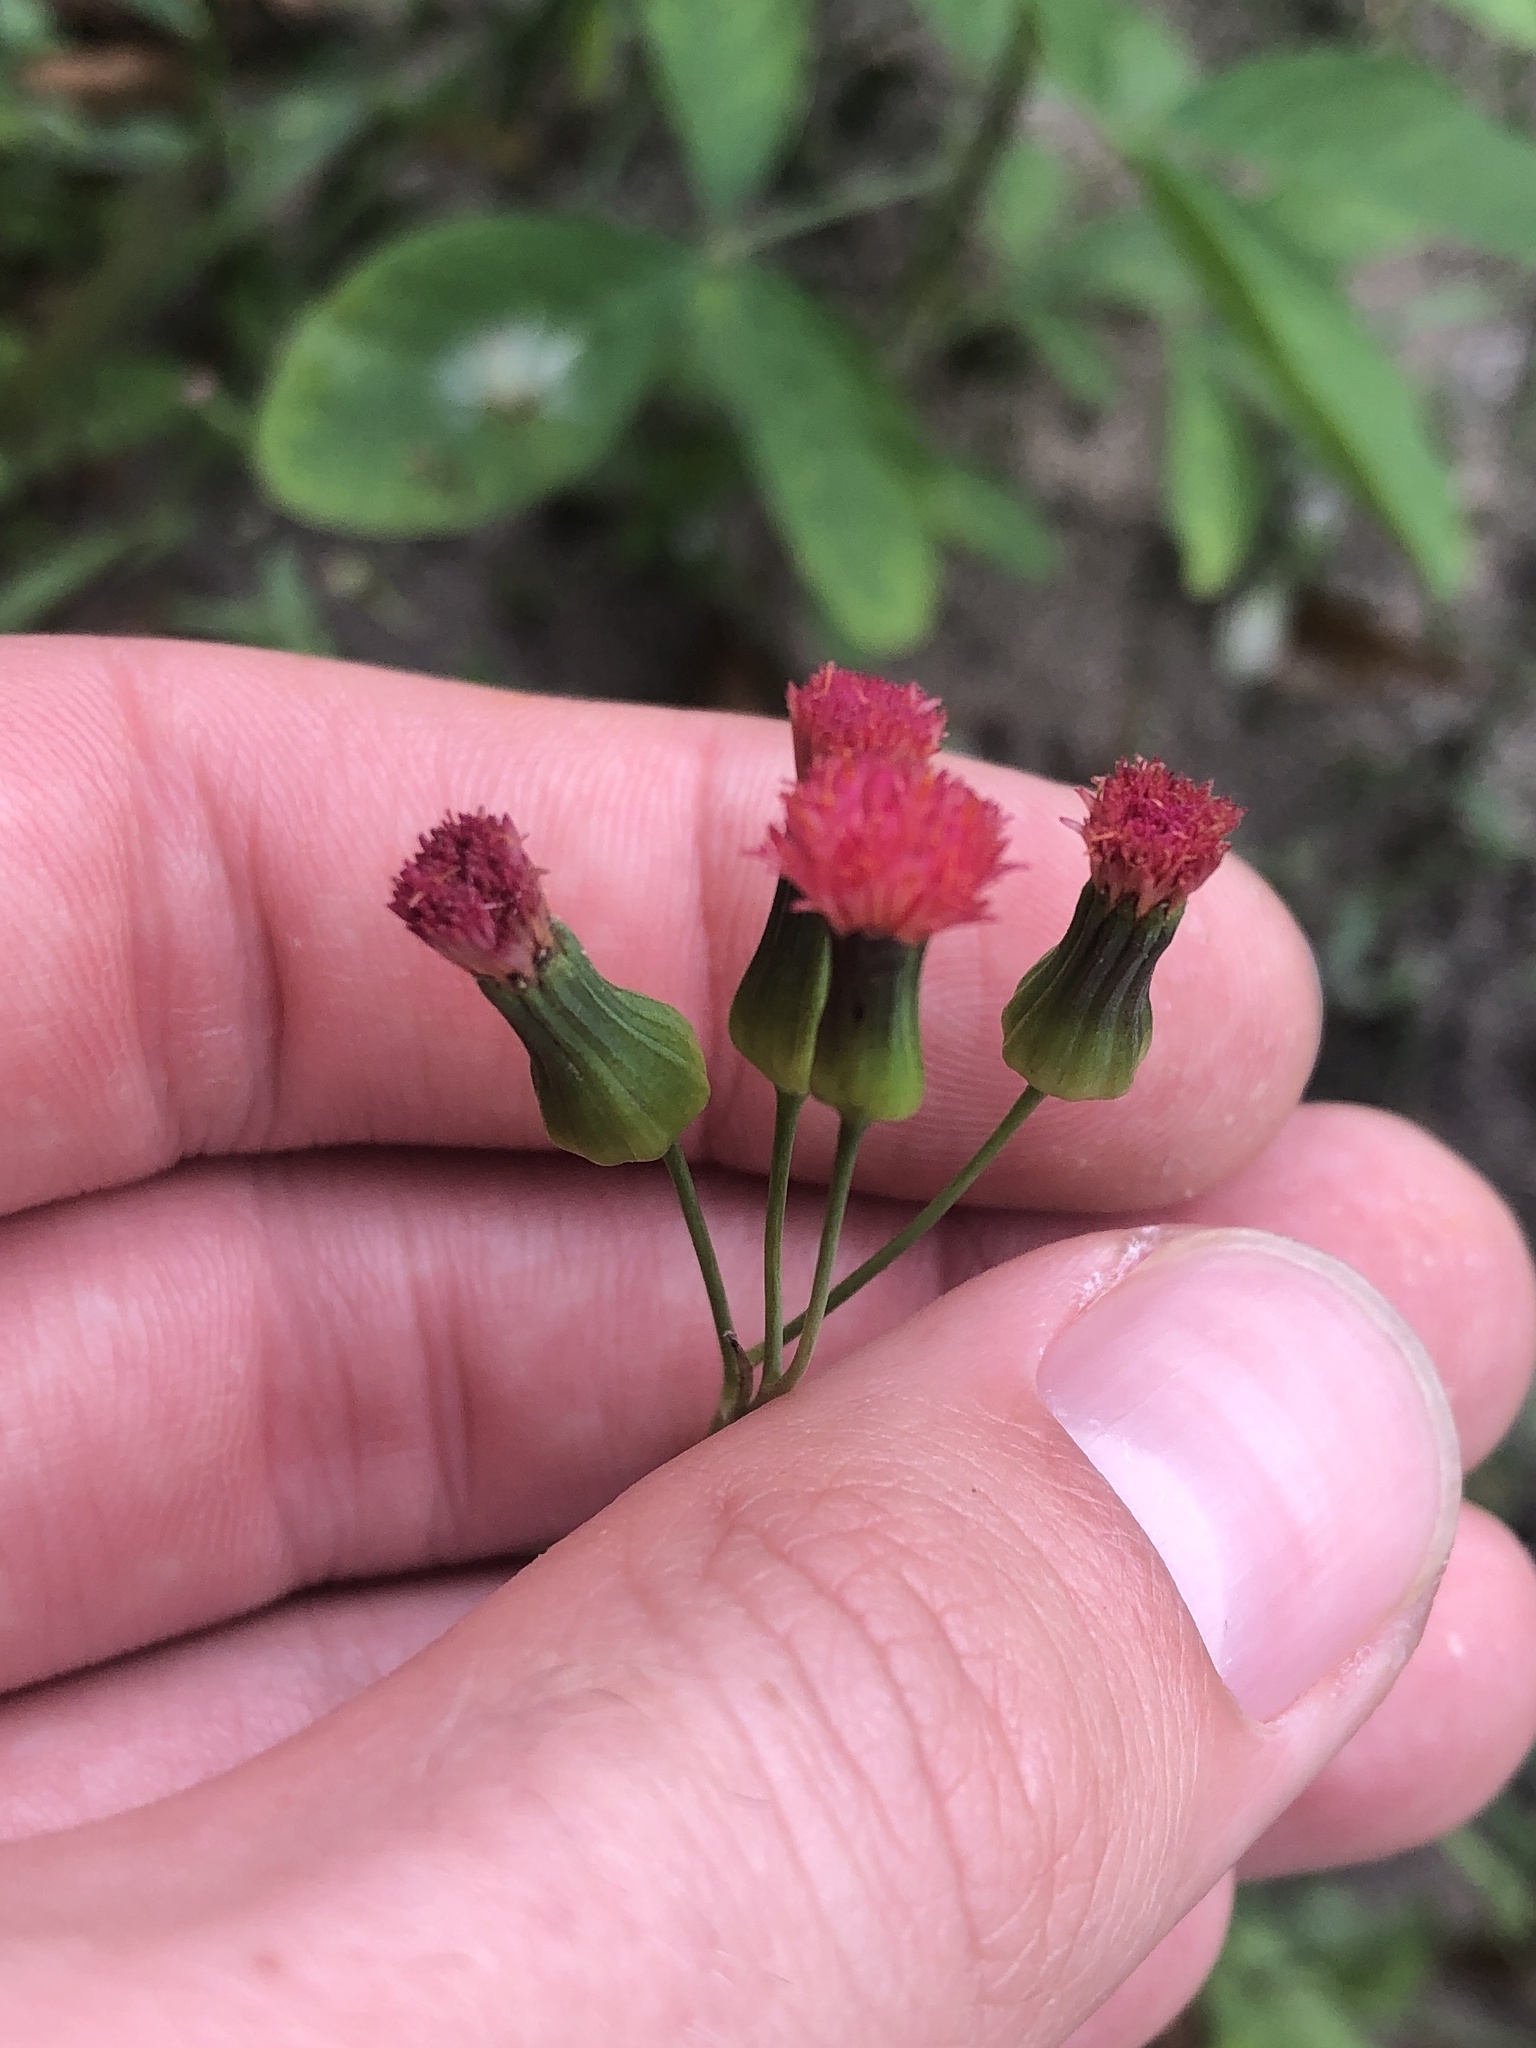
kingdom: Plantae
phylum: Tracheophyta
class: Magnoliopsida
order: Asterales
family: Asteraceae
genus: Emilia
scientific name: Emilia fosbergii
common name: Florida tasselflower
